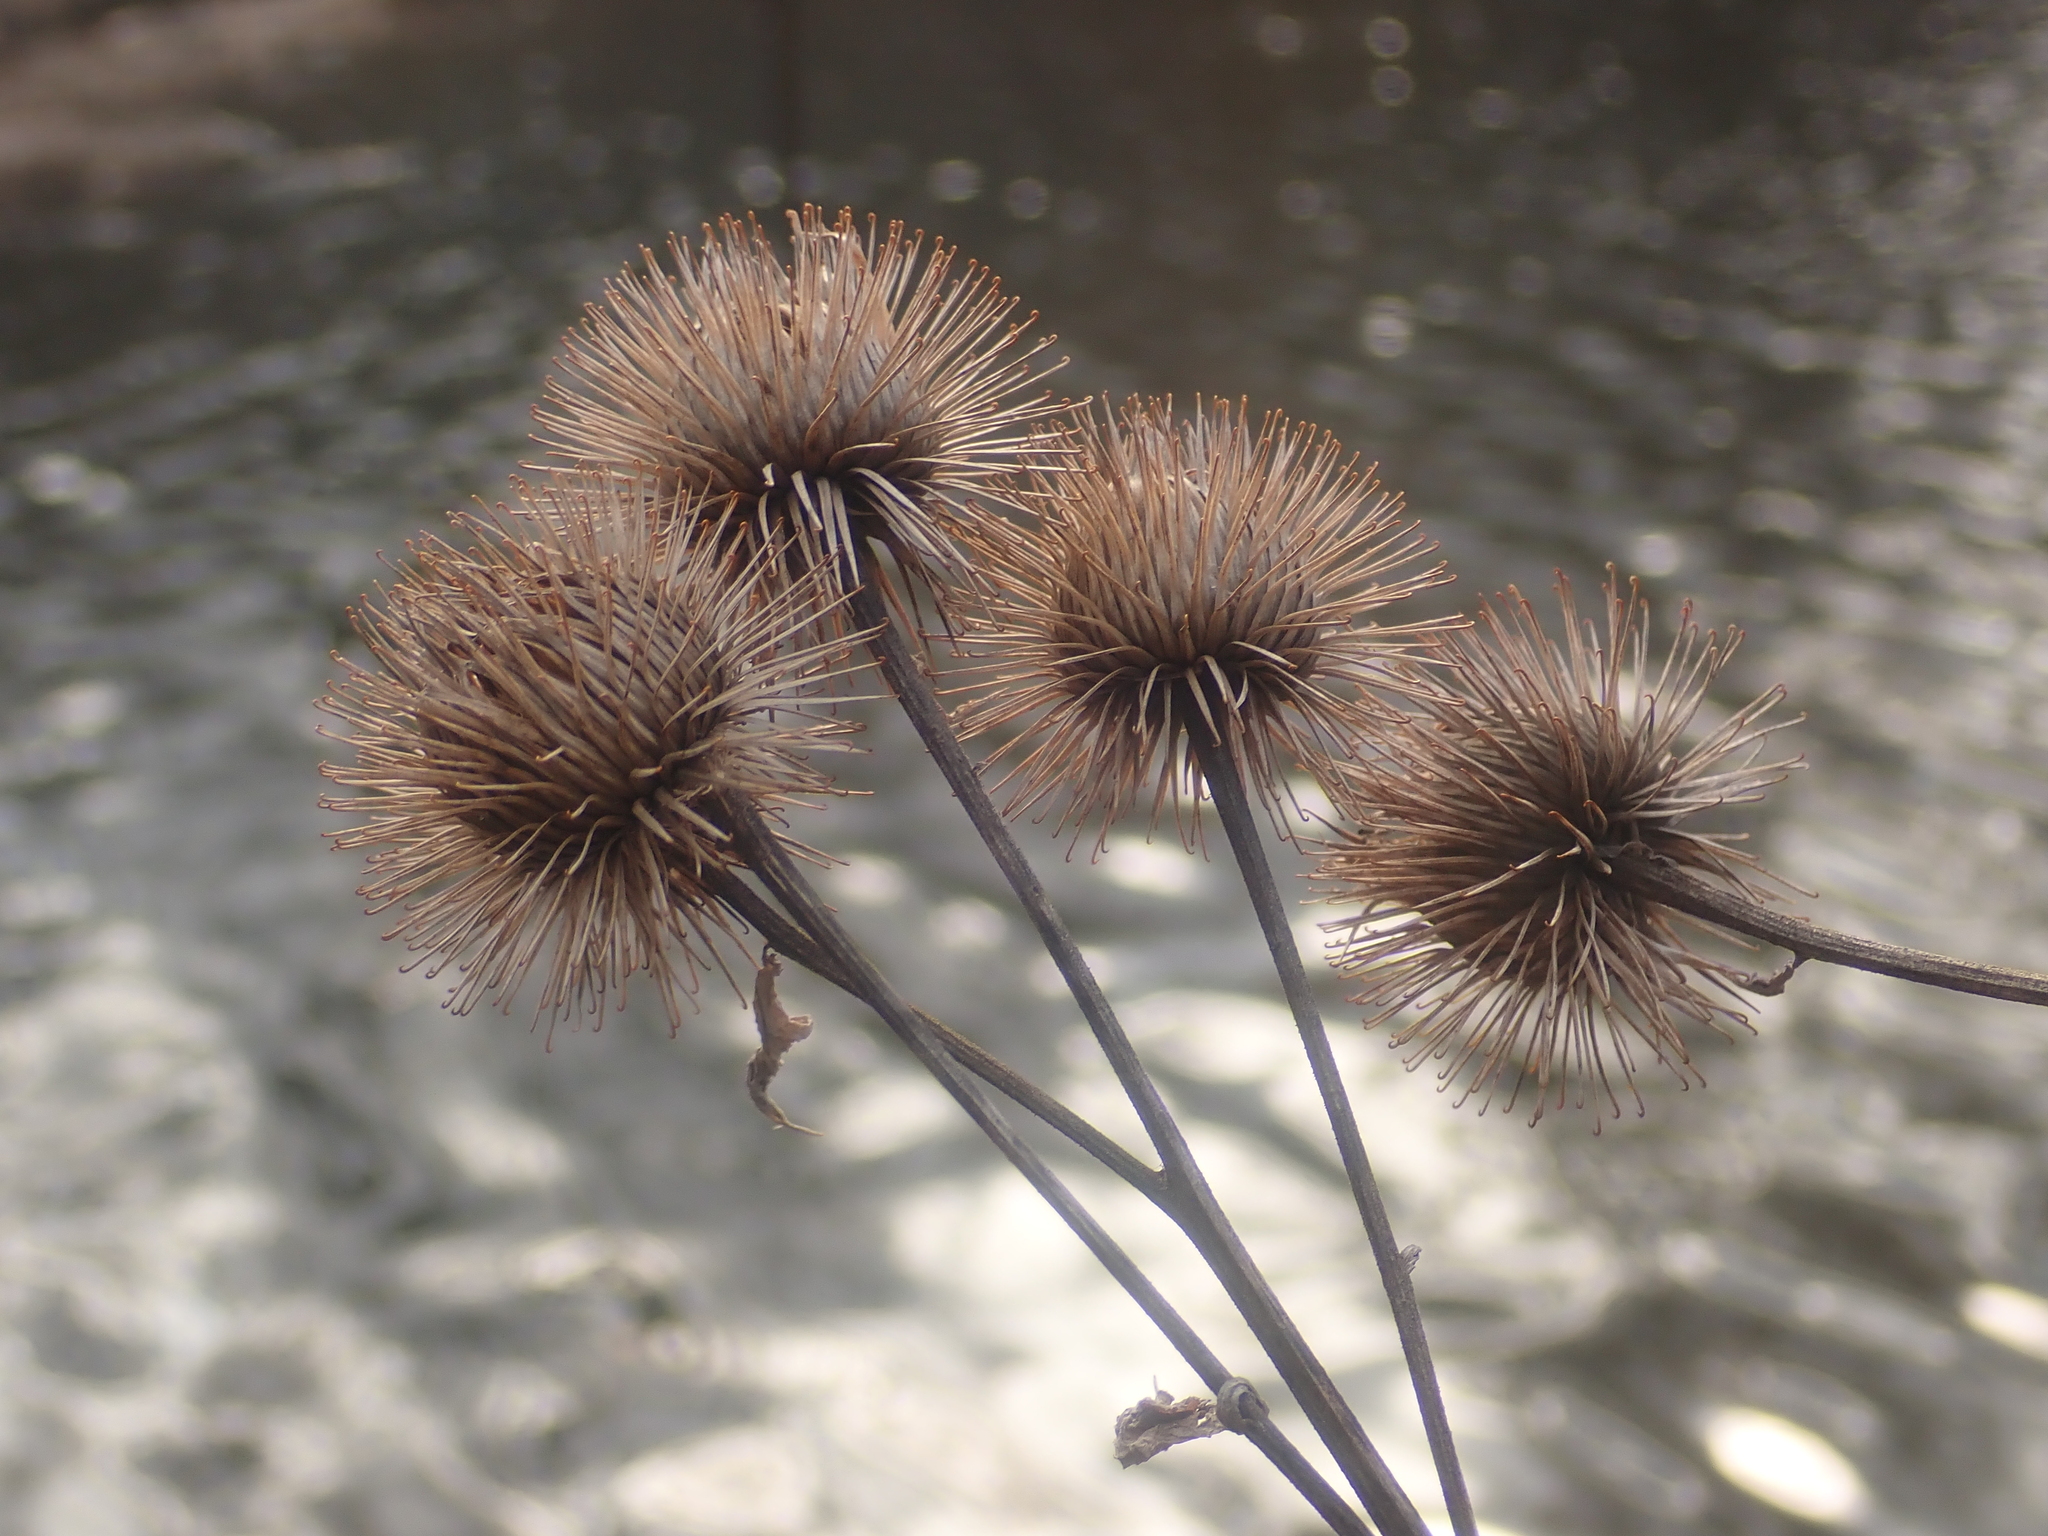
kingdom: Plantae
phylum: Tracheophyta
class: Magnoliopsida
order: Asterales
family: Asteraceae
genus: Arctium
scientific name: Arctium lappa
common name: Greater burdock
